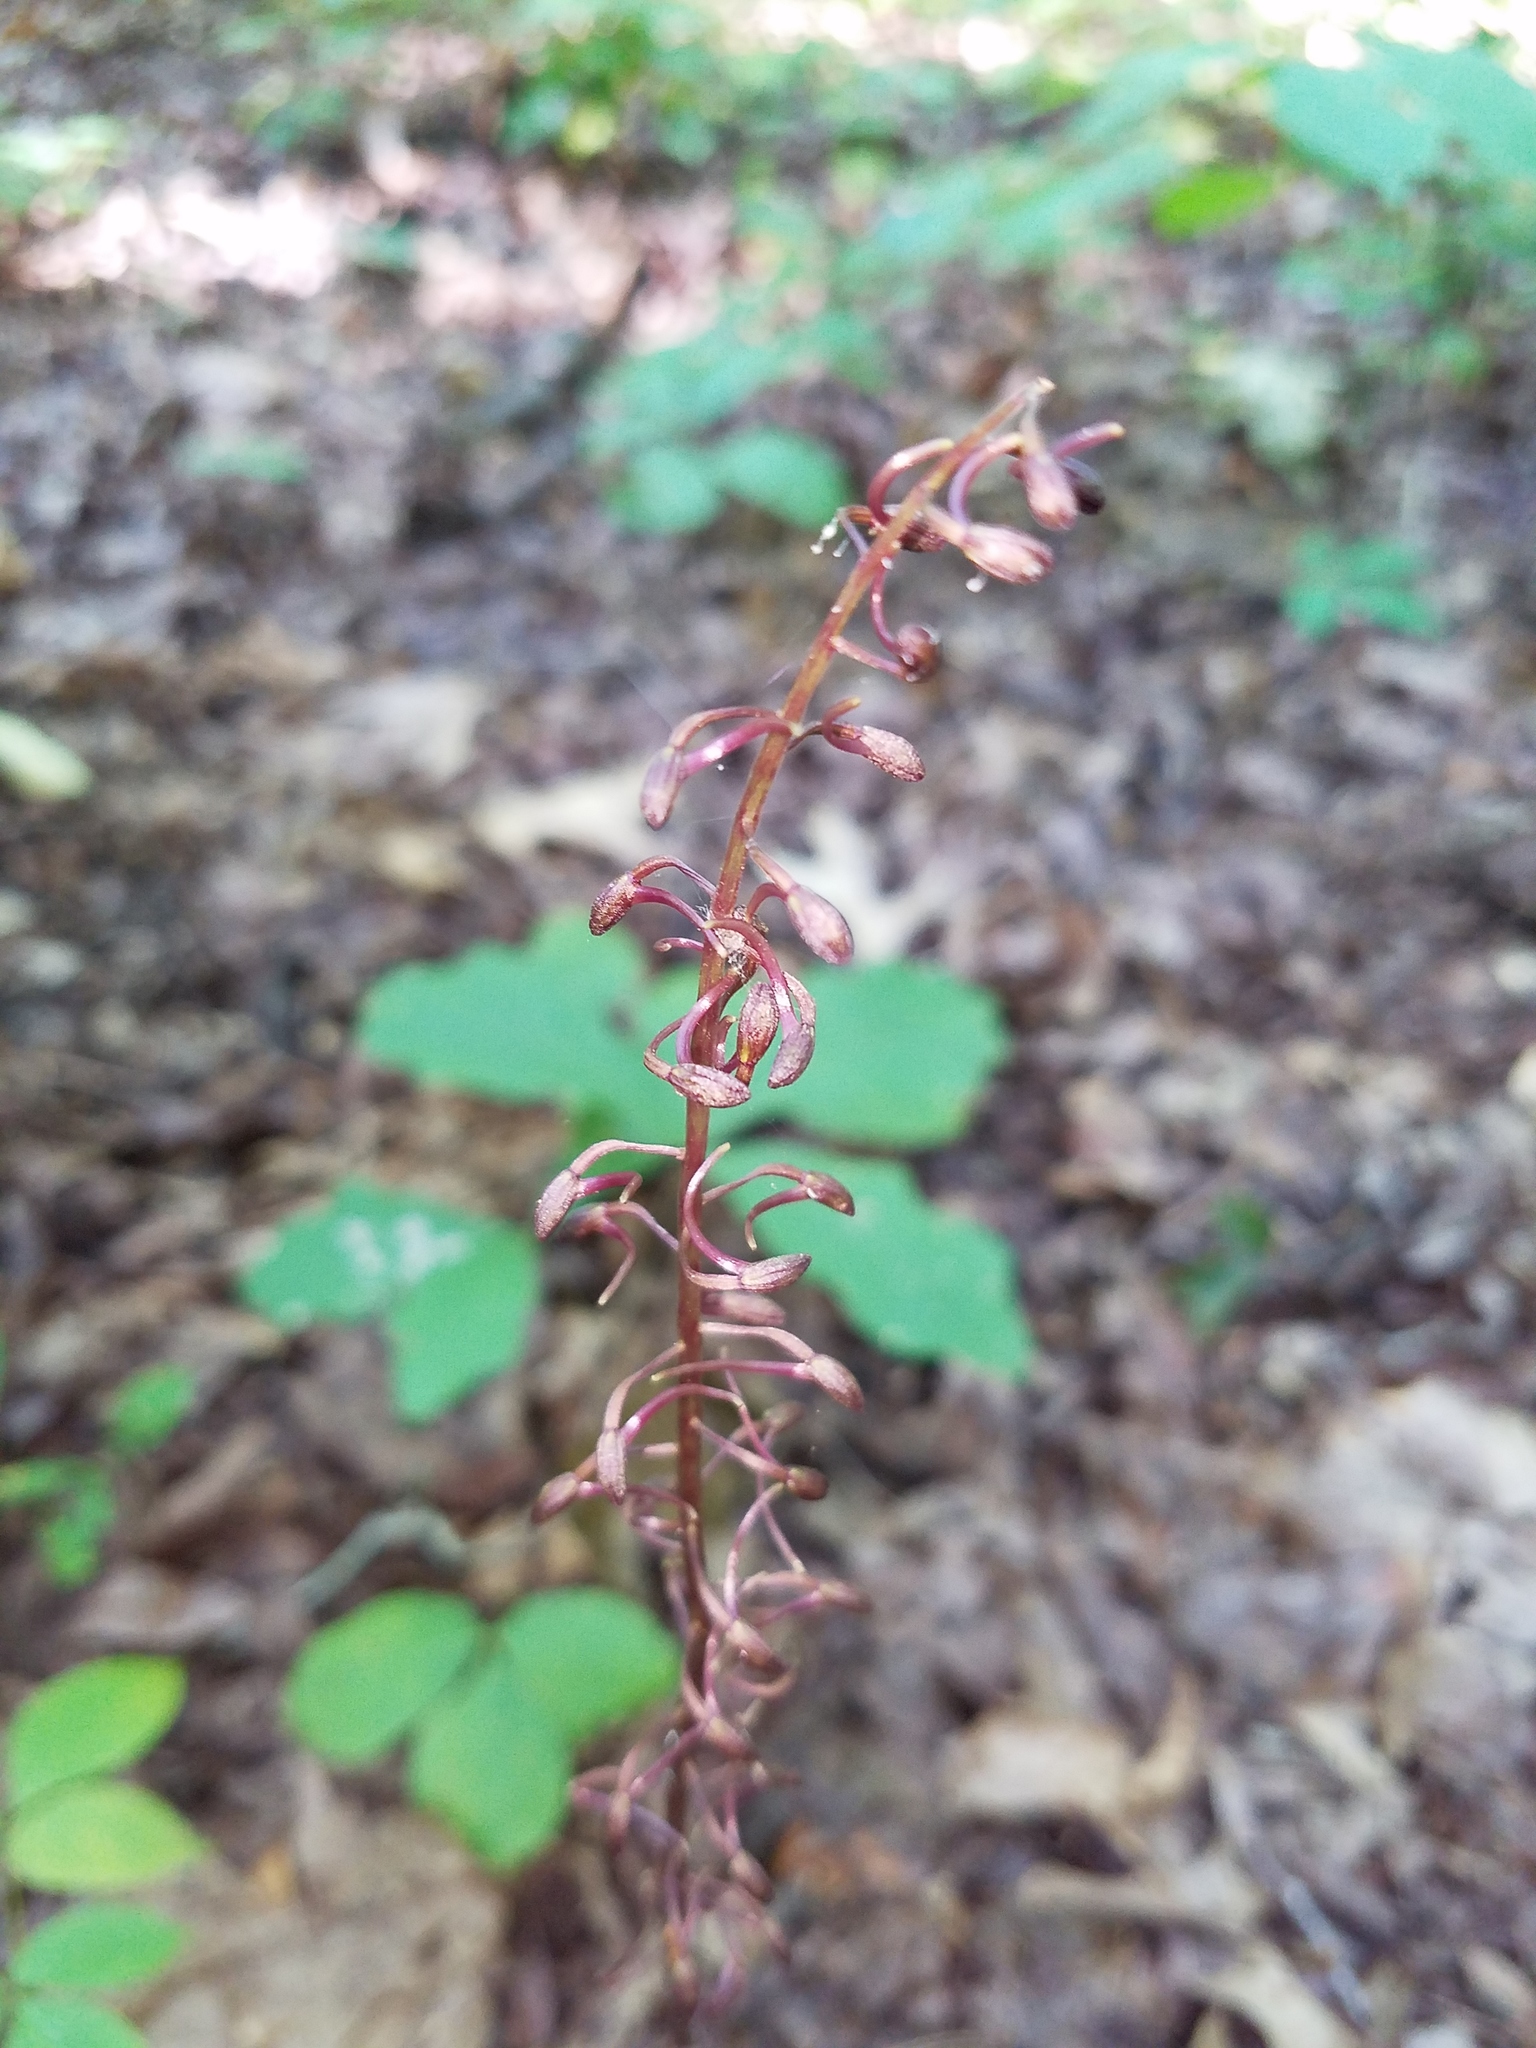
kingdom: Plantae
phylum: Tracheophyta
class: Liliopsida
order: Asparagales
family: Orchidaceae
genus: Tipularia
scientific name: Tipularia discolor
